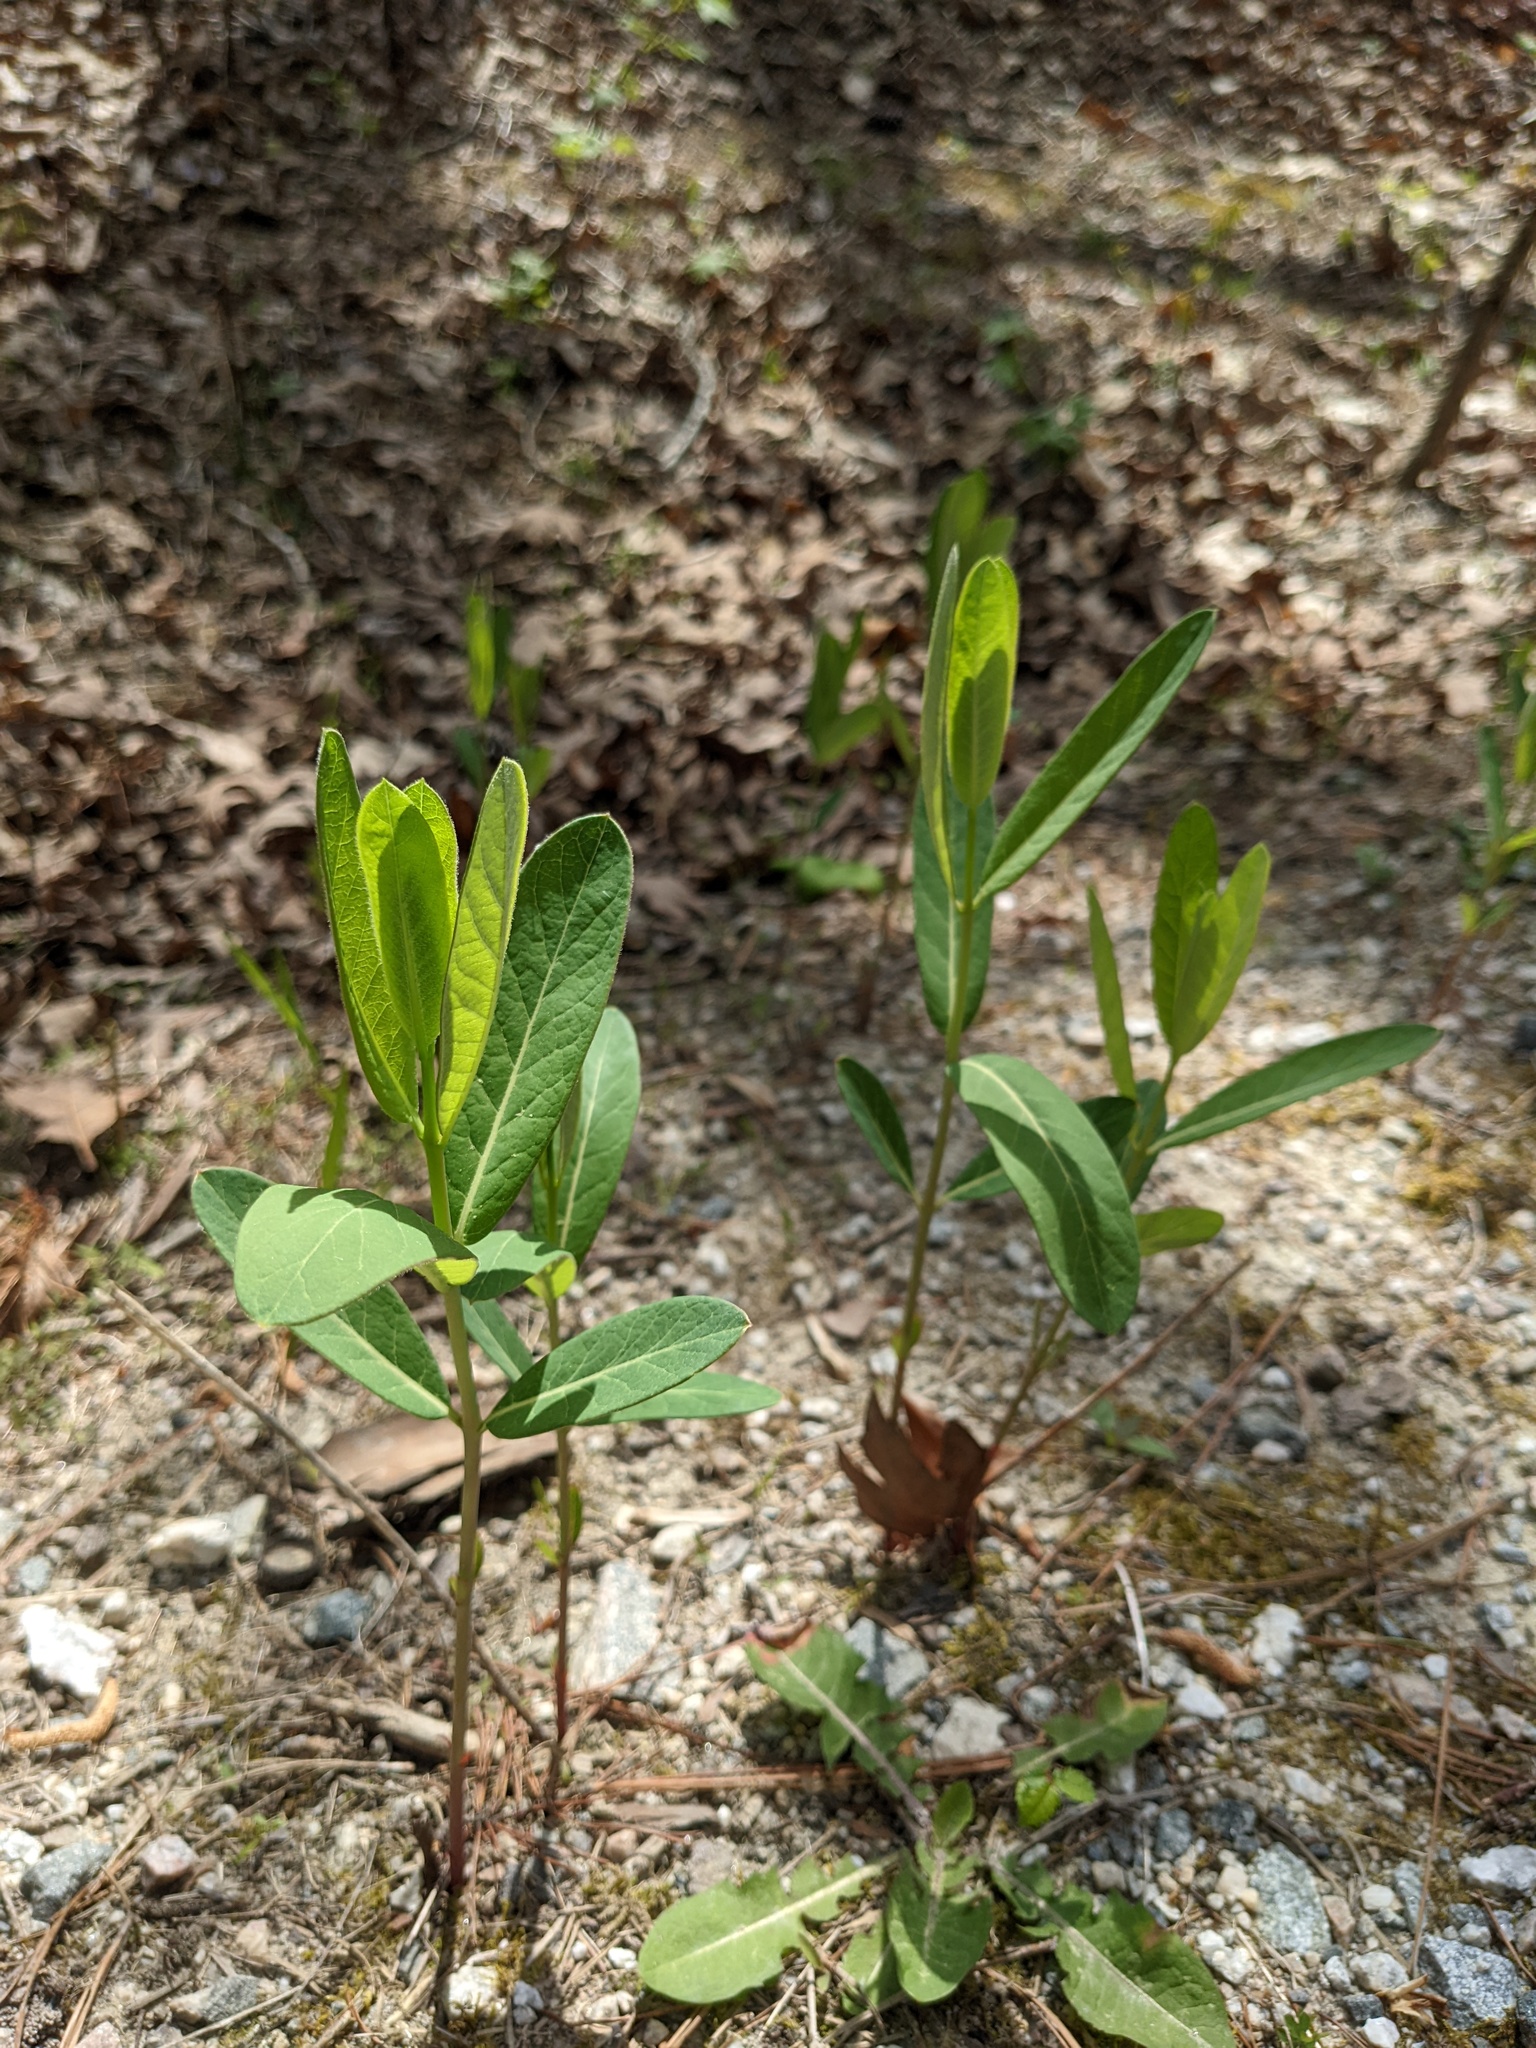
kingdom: Plantae
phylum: Tracheophyta
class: Magnoliopsida
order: Gentianales
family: Apocynaceae
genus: Apocynum
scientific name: Apocynum cannabinum
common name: Hemp dogbane
